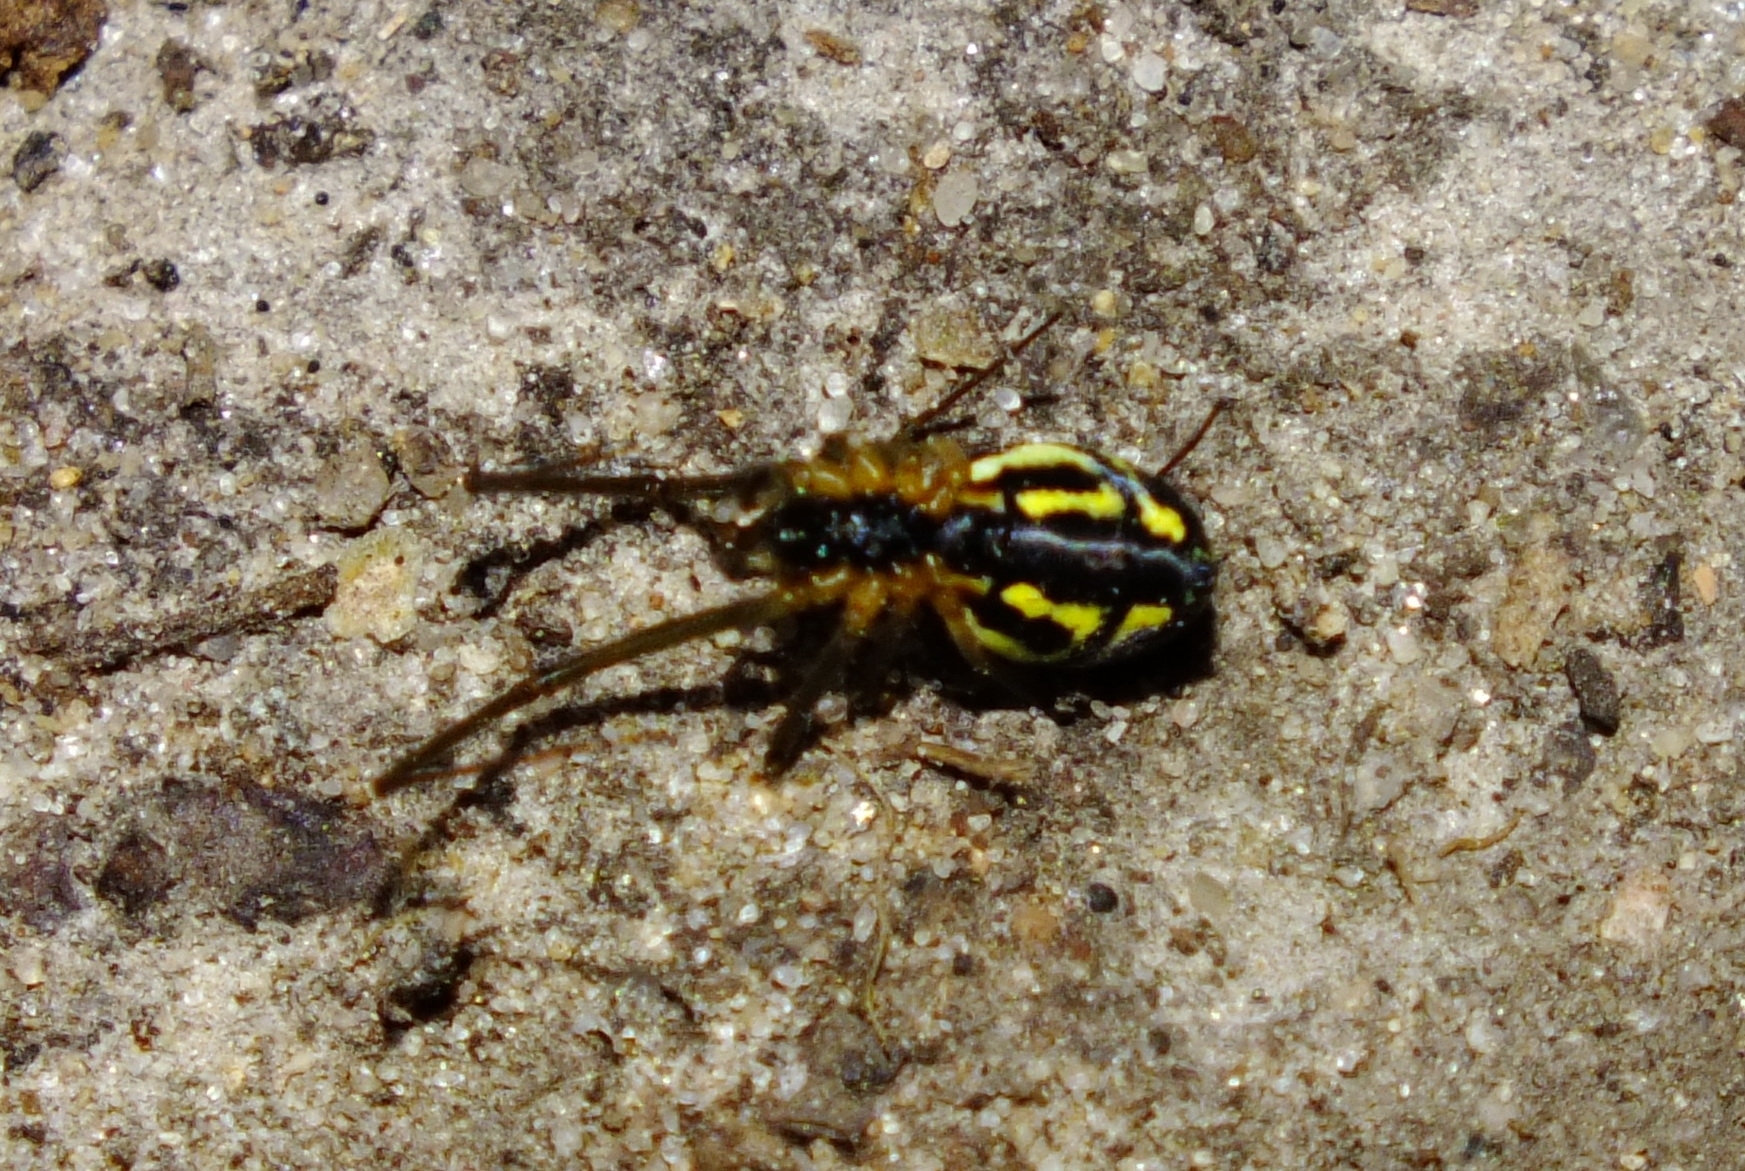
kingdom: Animalia
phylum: Arthropoda
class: Arachnida
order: Araneae
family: Linyphiidae
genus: Neriene
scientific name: Neriene radiata
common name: Filmy dome spider
